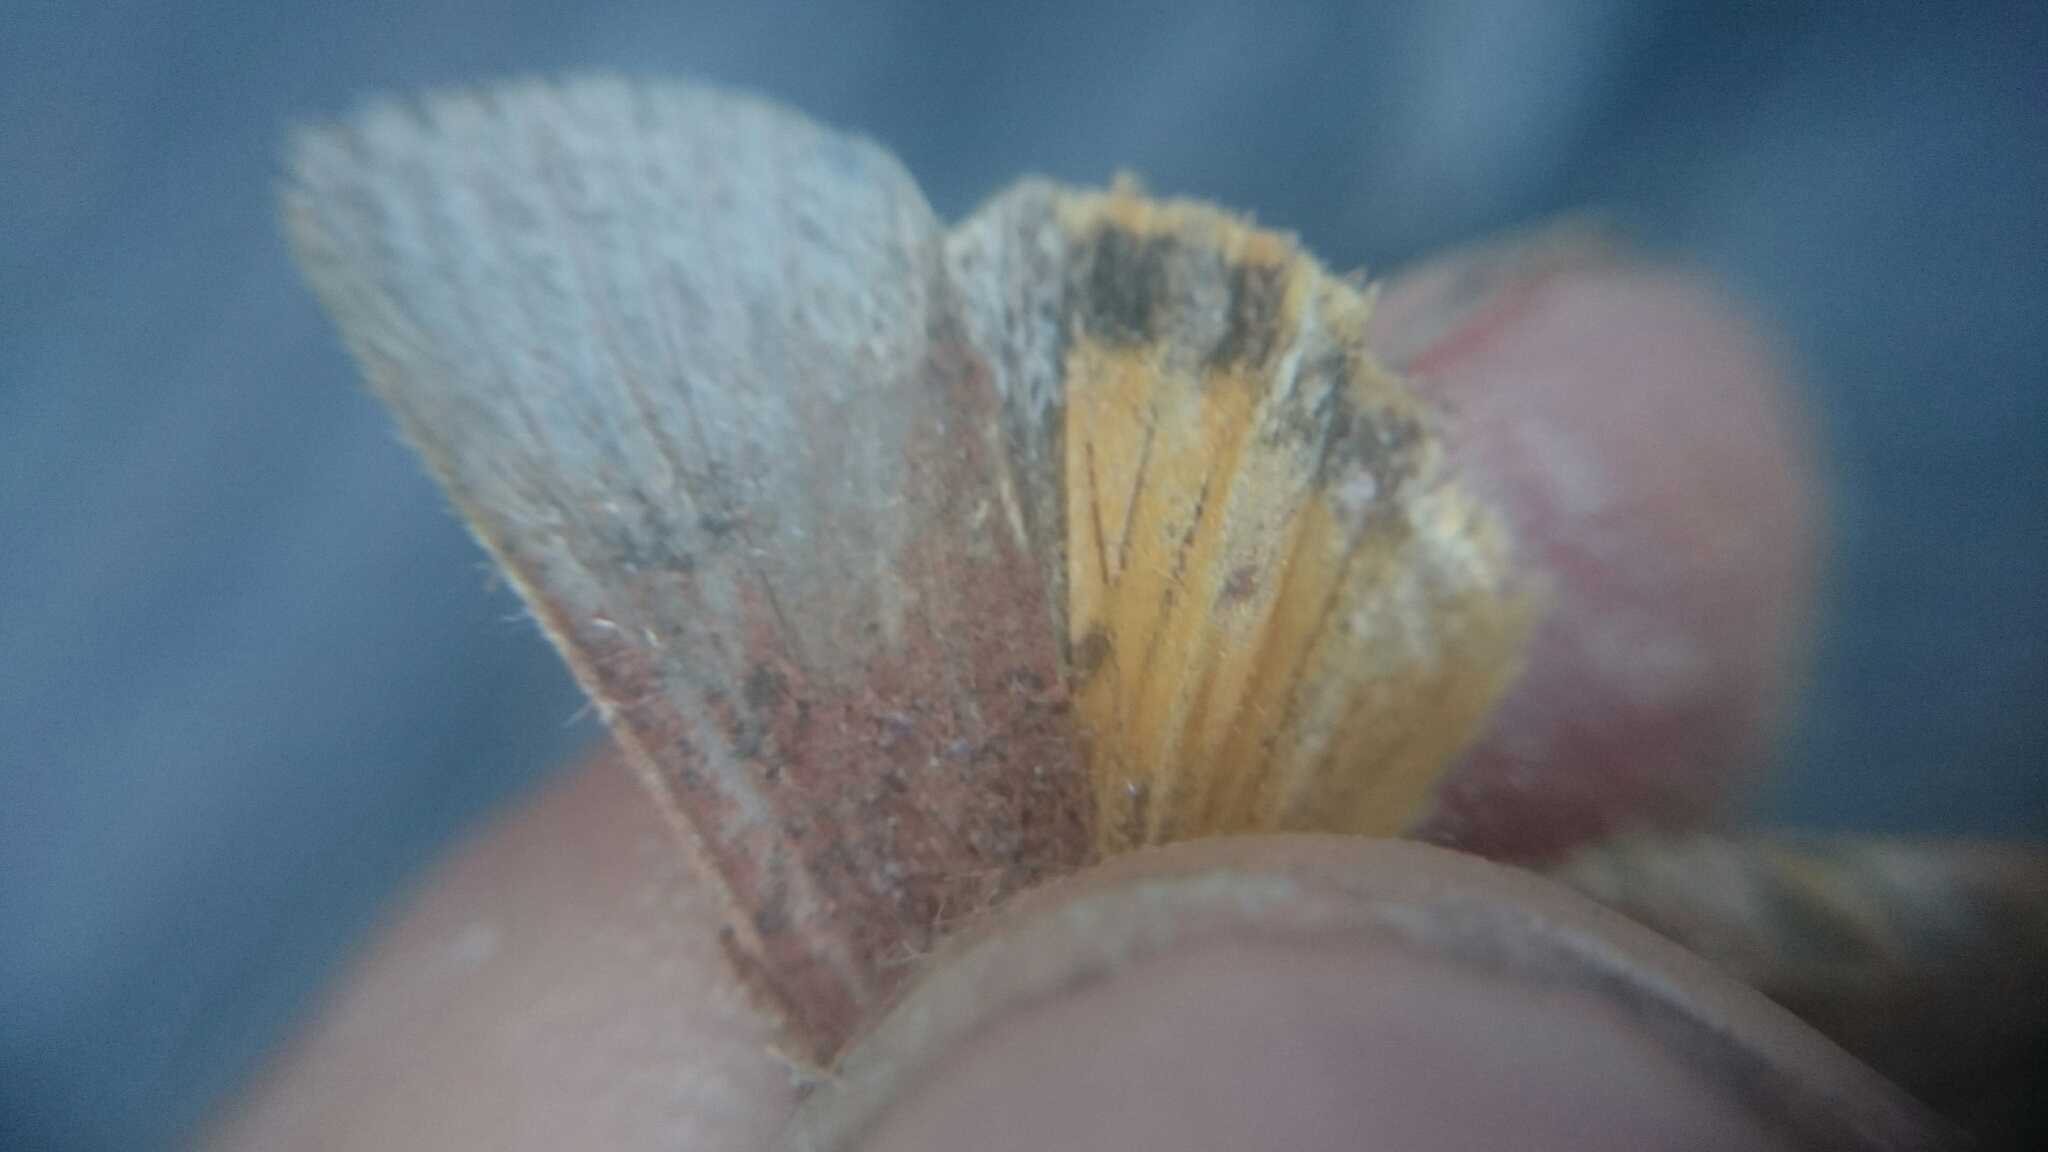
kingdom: Animalia
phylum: Arthropoda
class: Insecta
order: Lepidoptera
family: Noctuidae
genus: Noctua
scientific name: Noctua janthe
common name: Lesser broad-bordered yellow underwing
